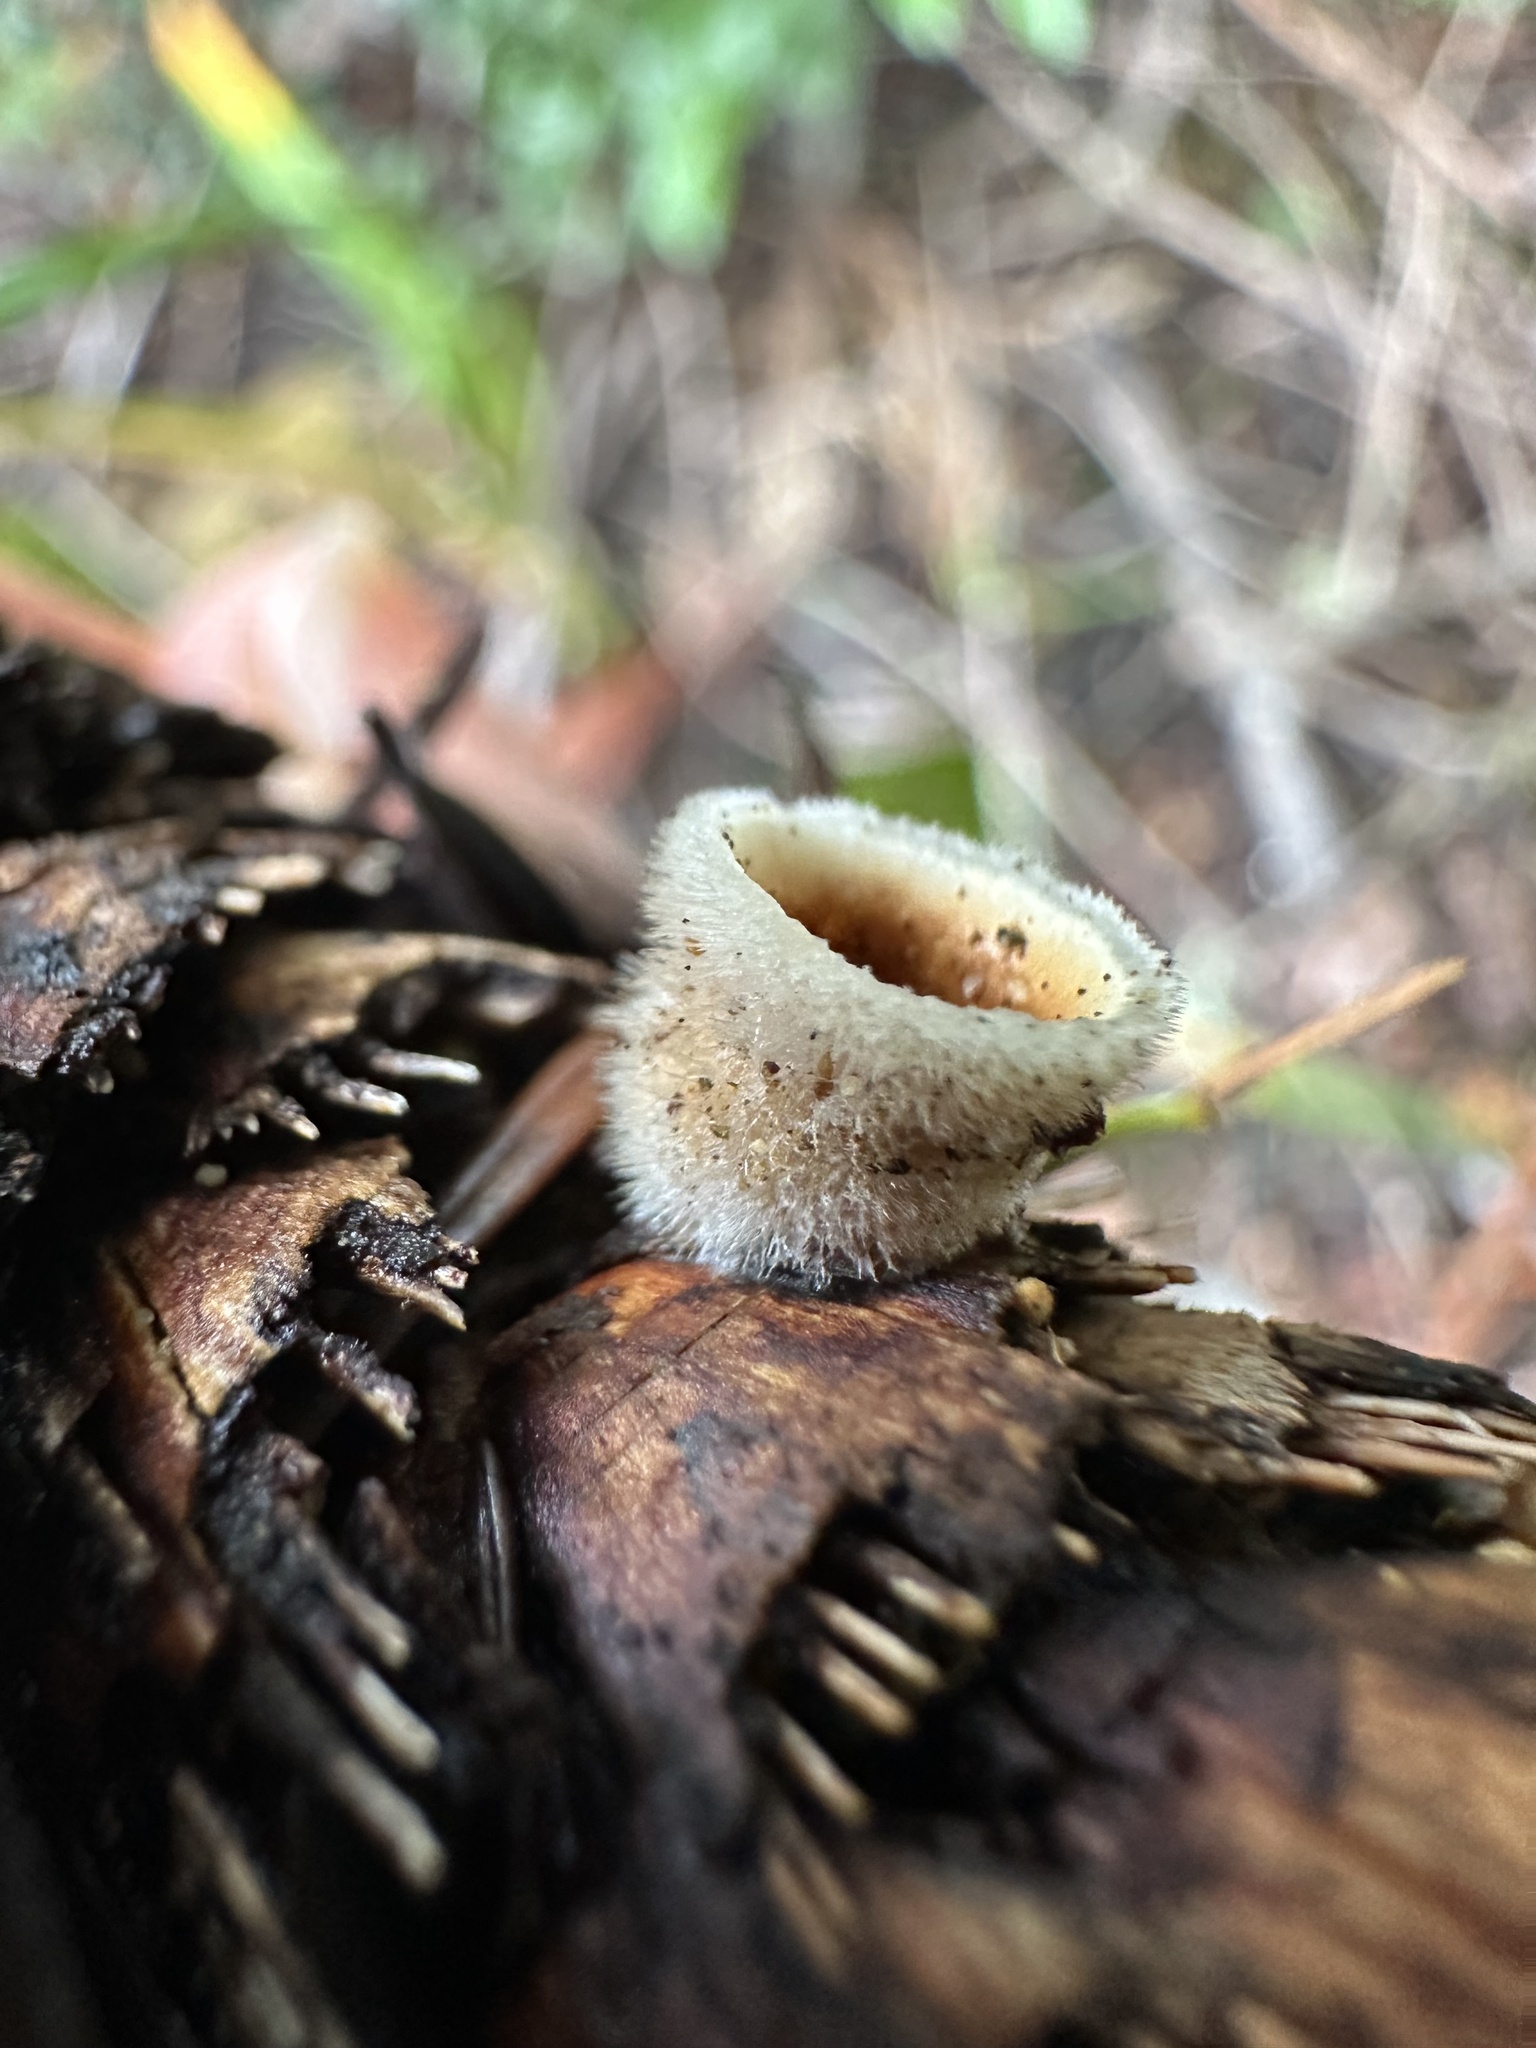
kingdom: Fungi
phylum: Basidiomycota
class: Agaricomycetes
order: Agaricales
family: Agaricaceae
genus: Nidula
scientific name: Nidula niveotomentosa
